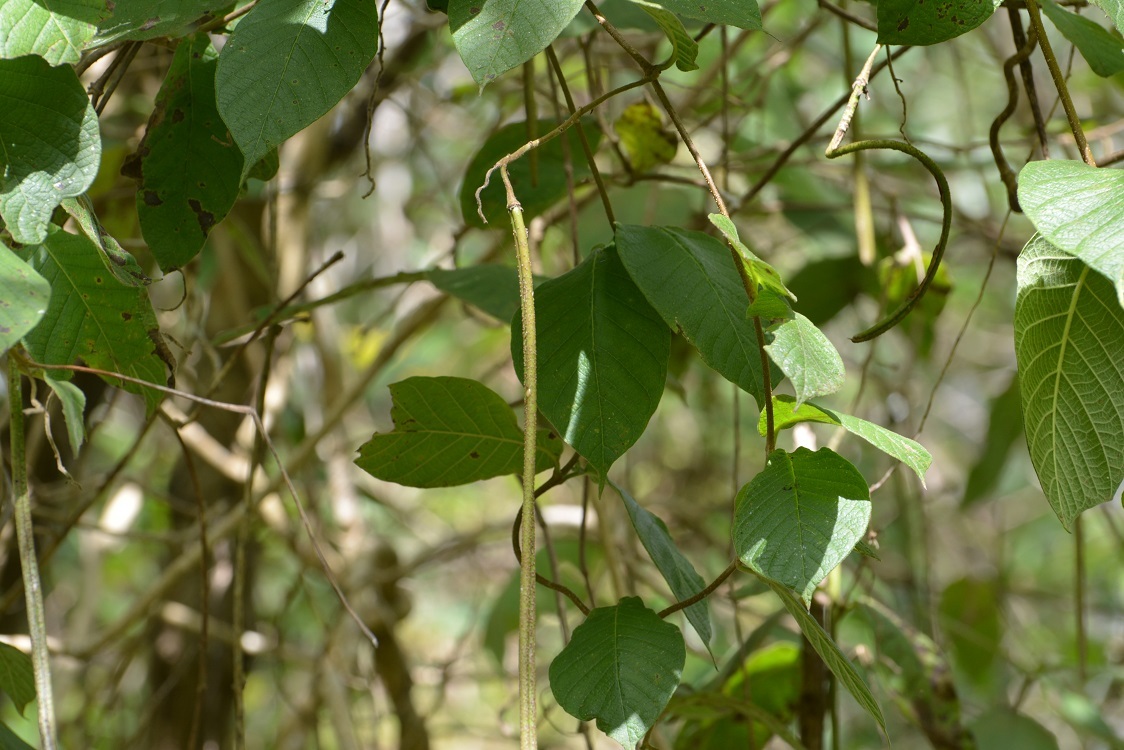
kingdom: Plantae
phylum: Tracheophyta
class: Magnoliopsida
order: Gentianales
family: Apocynaceae
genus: Mandevilla
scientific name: Mandevilla subsessilis
